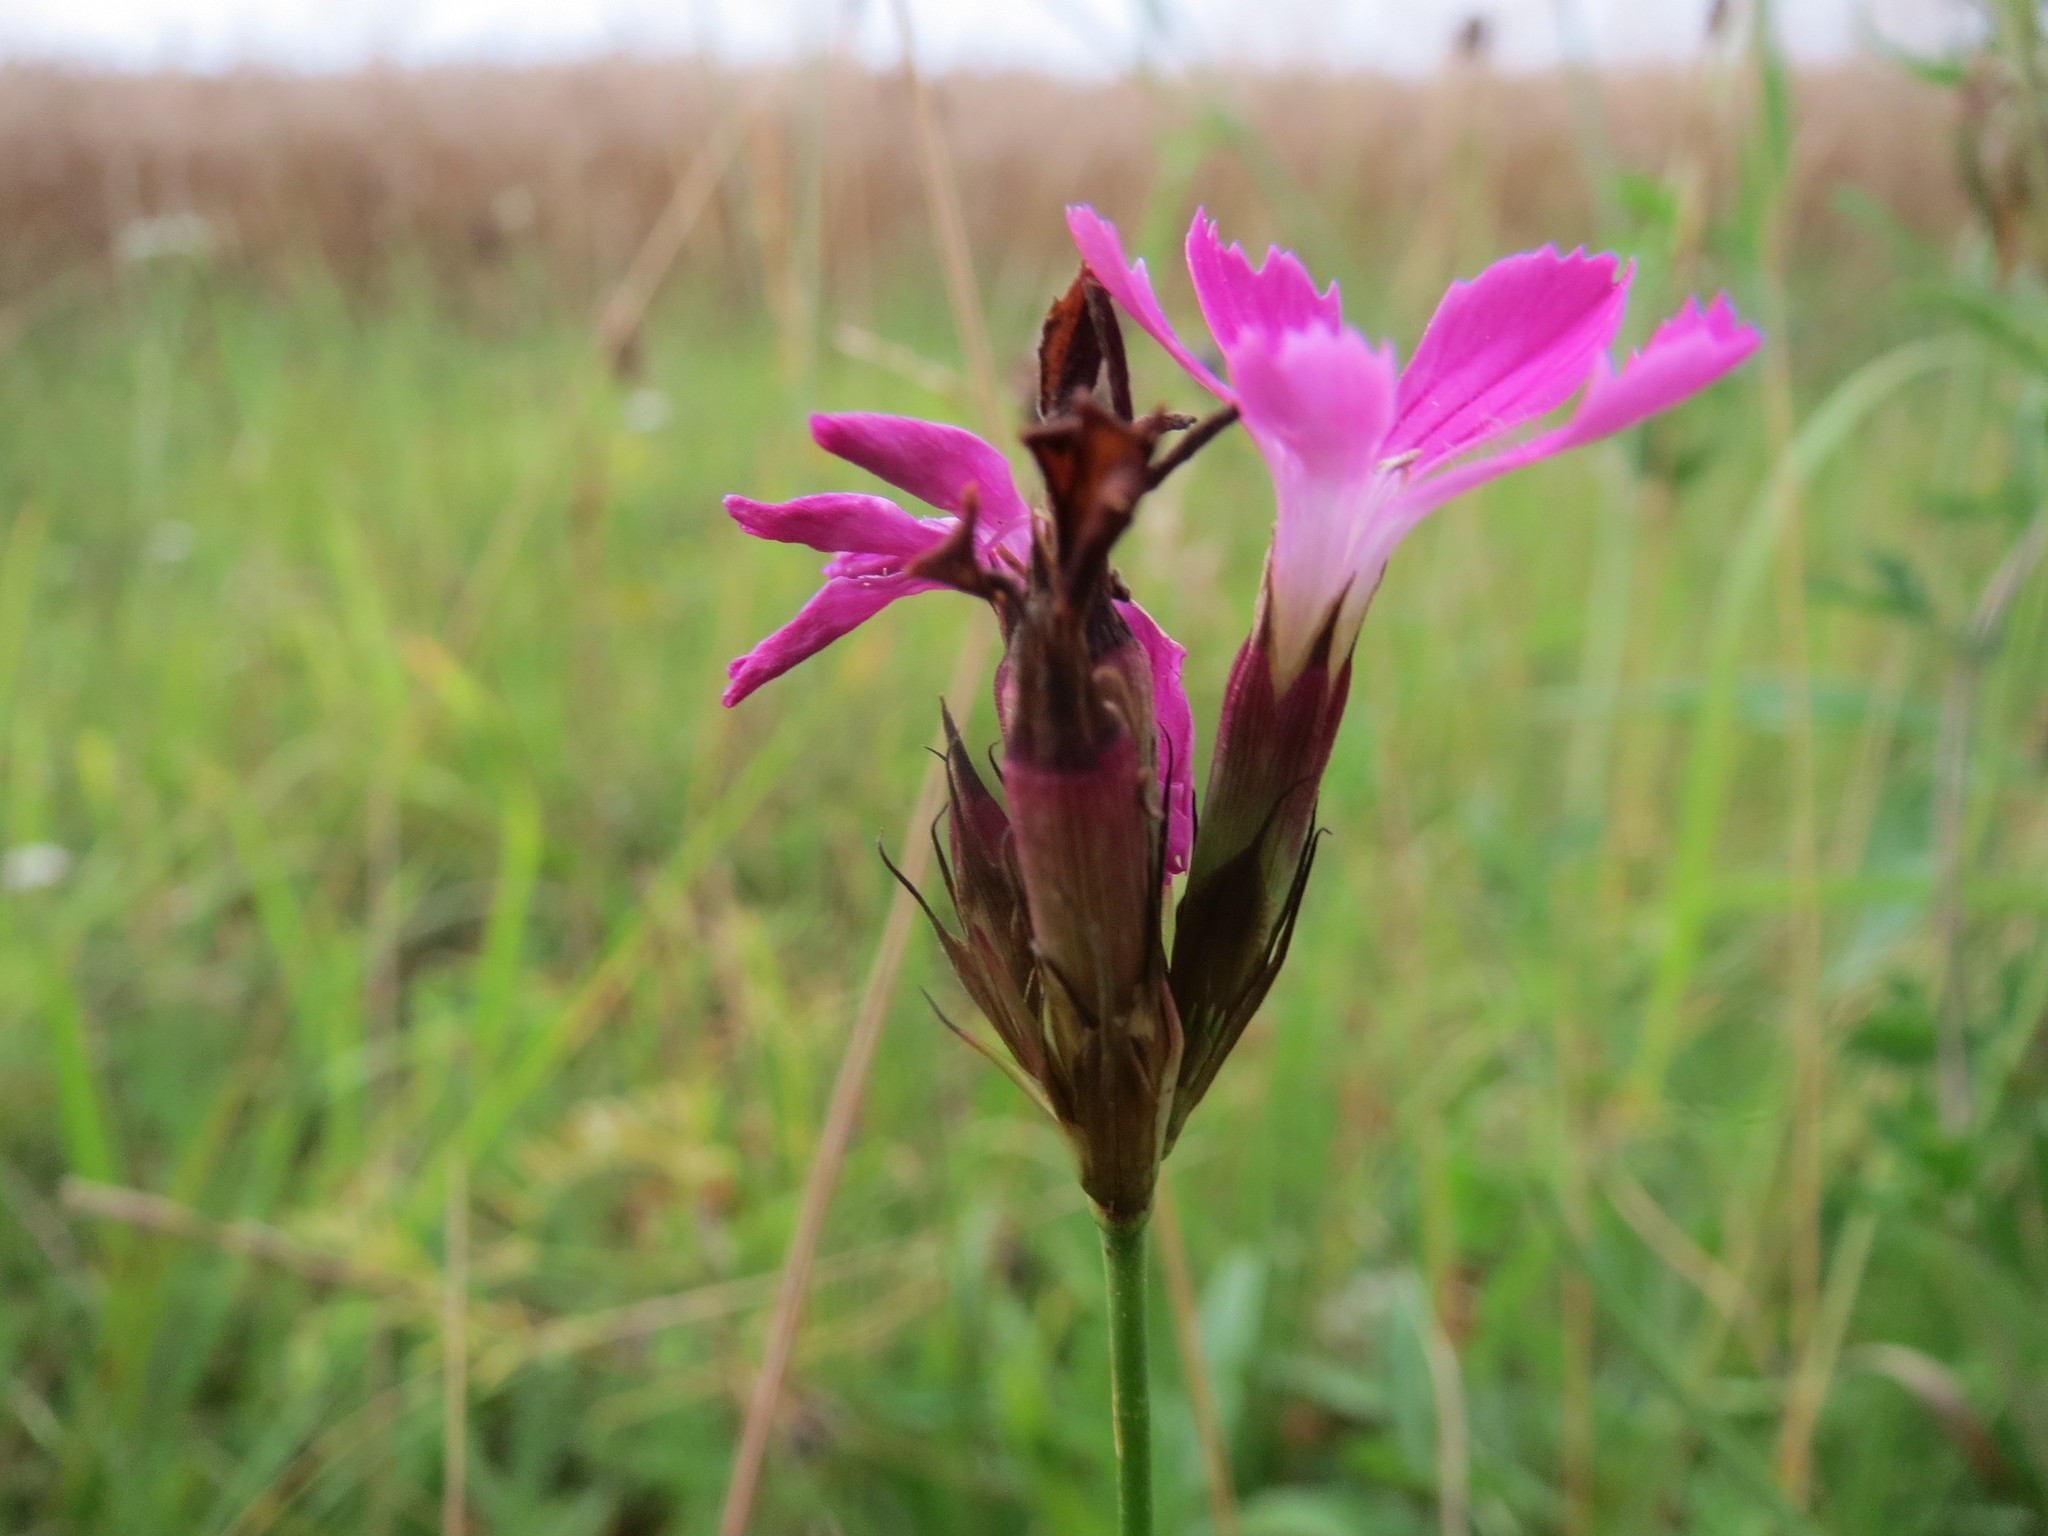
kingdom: Plantae
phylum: Tracheophyta
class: Magnoliopsida
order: Caryophyllales
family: Caryophyllaceae
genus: Dianthus
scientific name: Dianthus carthusianorum
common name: Carthusian pink
